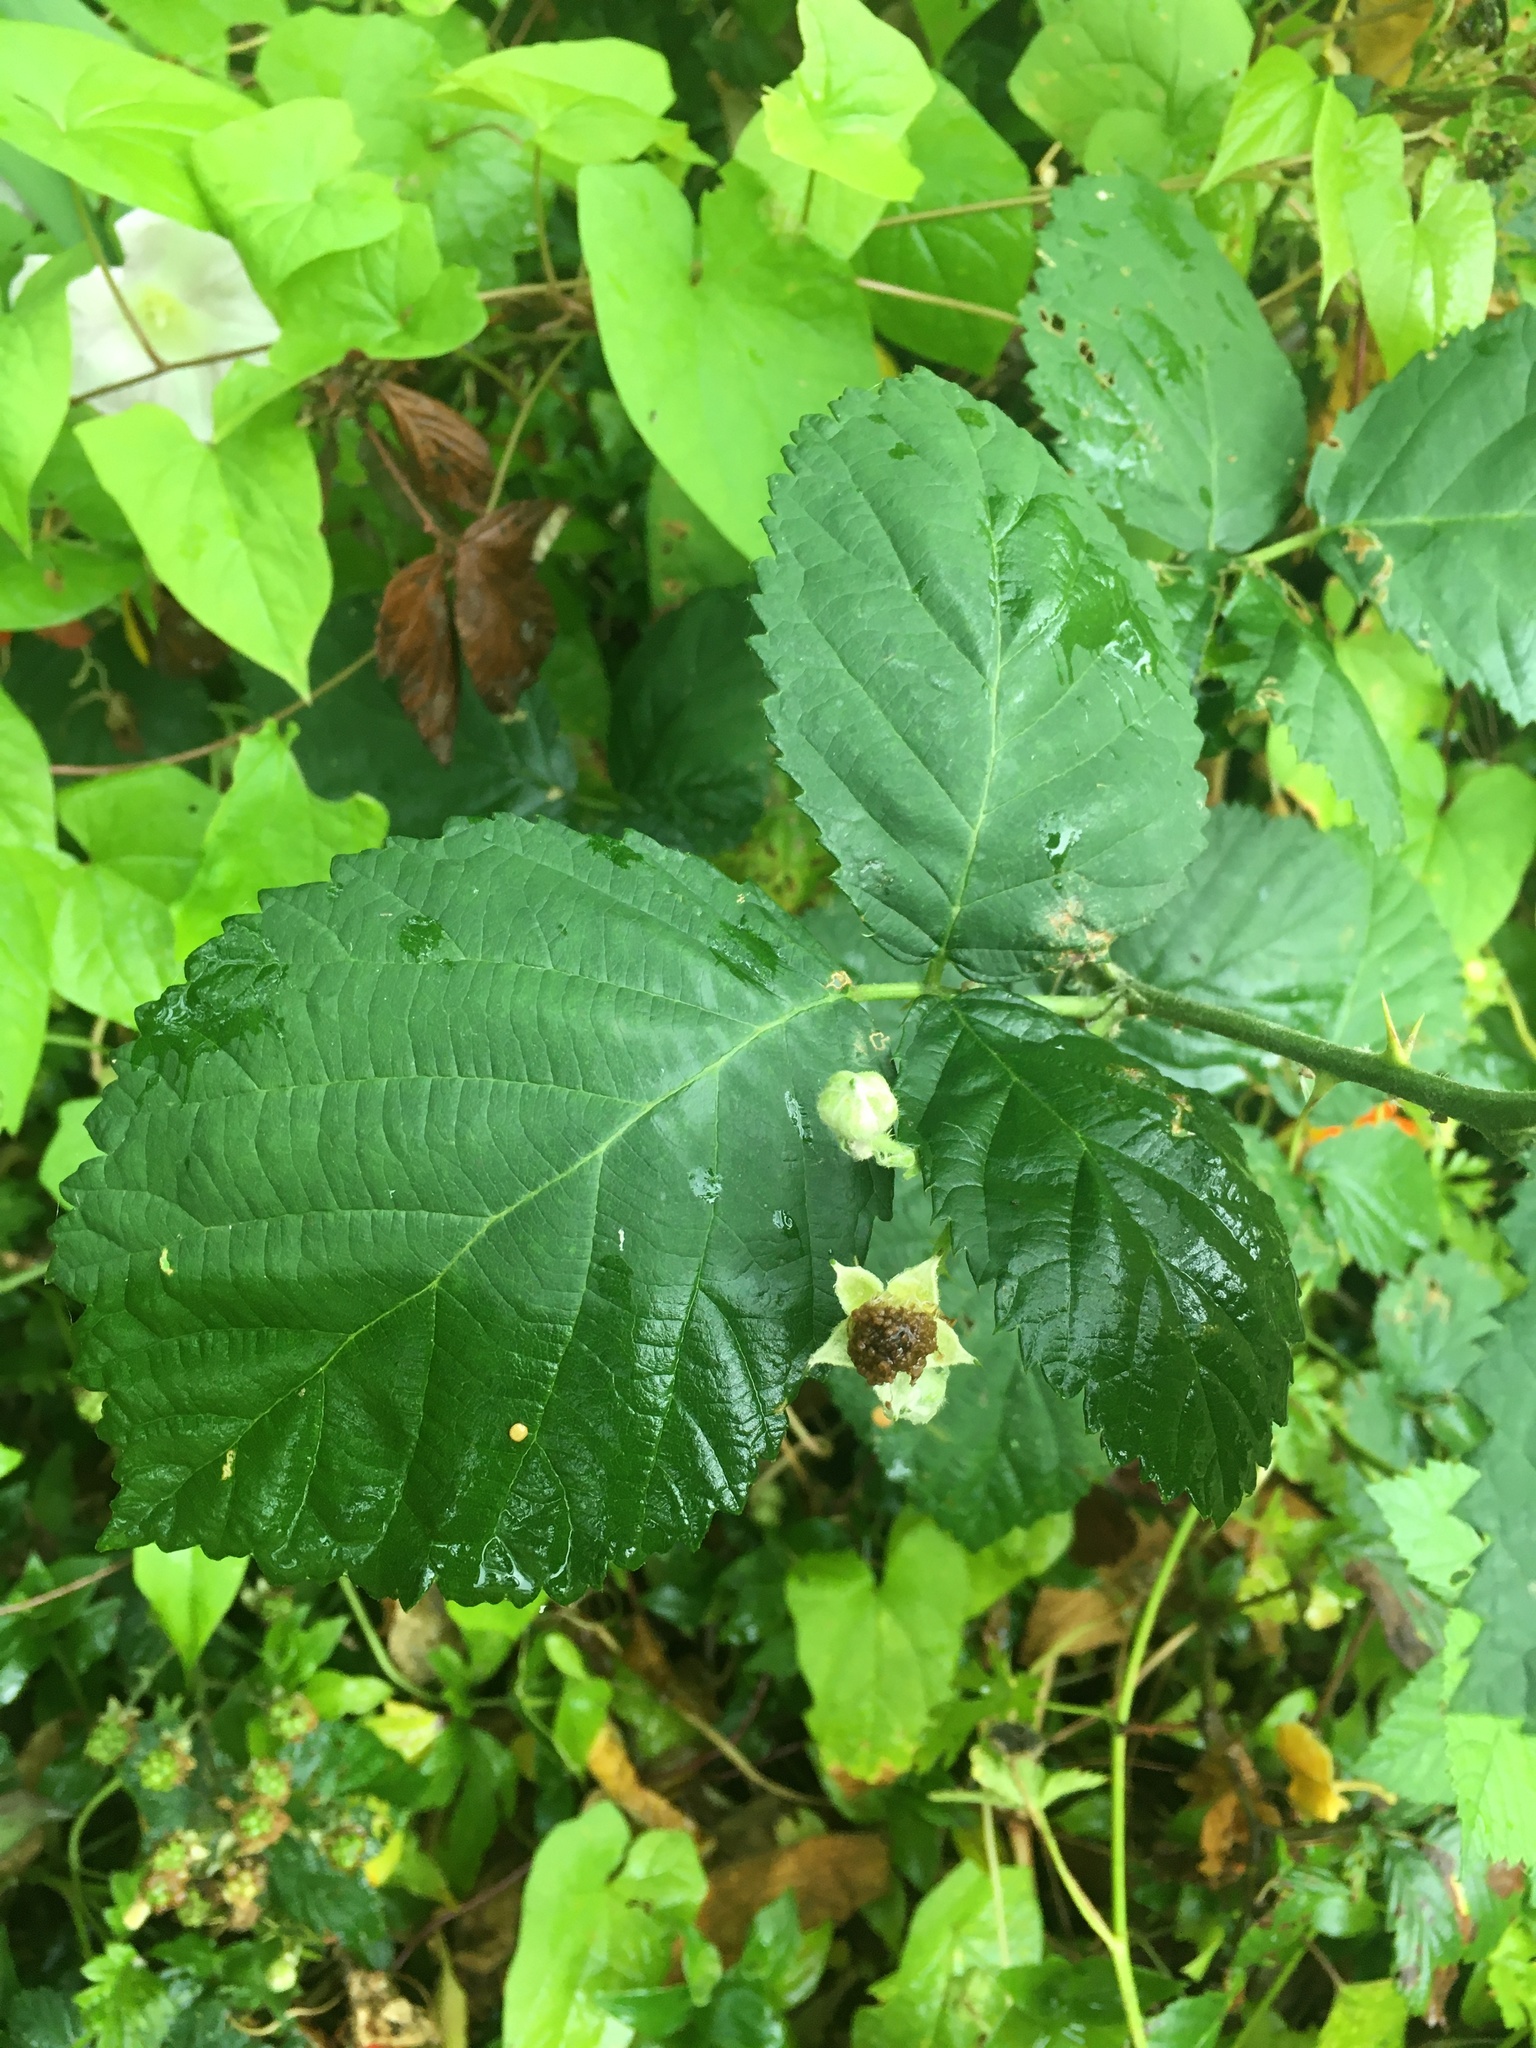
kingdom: Plantae
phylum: Tracheophyta
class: Magnoliopsida
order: Rosales
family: Rosaceae
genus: Rubus
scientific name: Rubus armeniacus
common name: Himalayan blackberry
